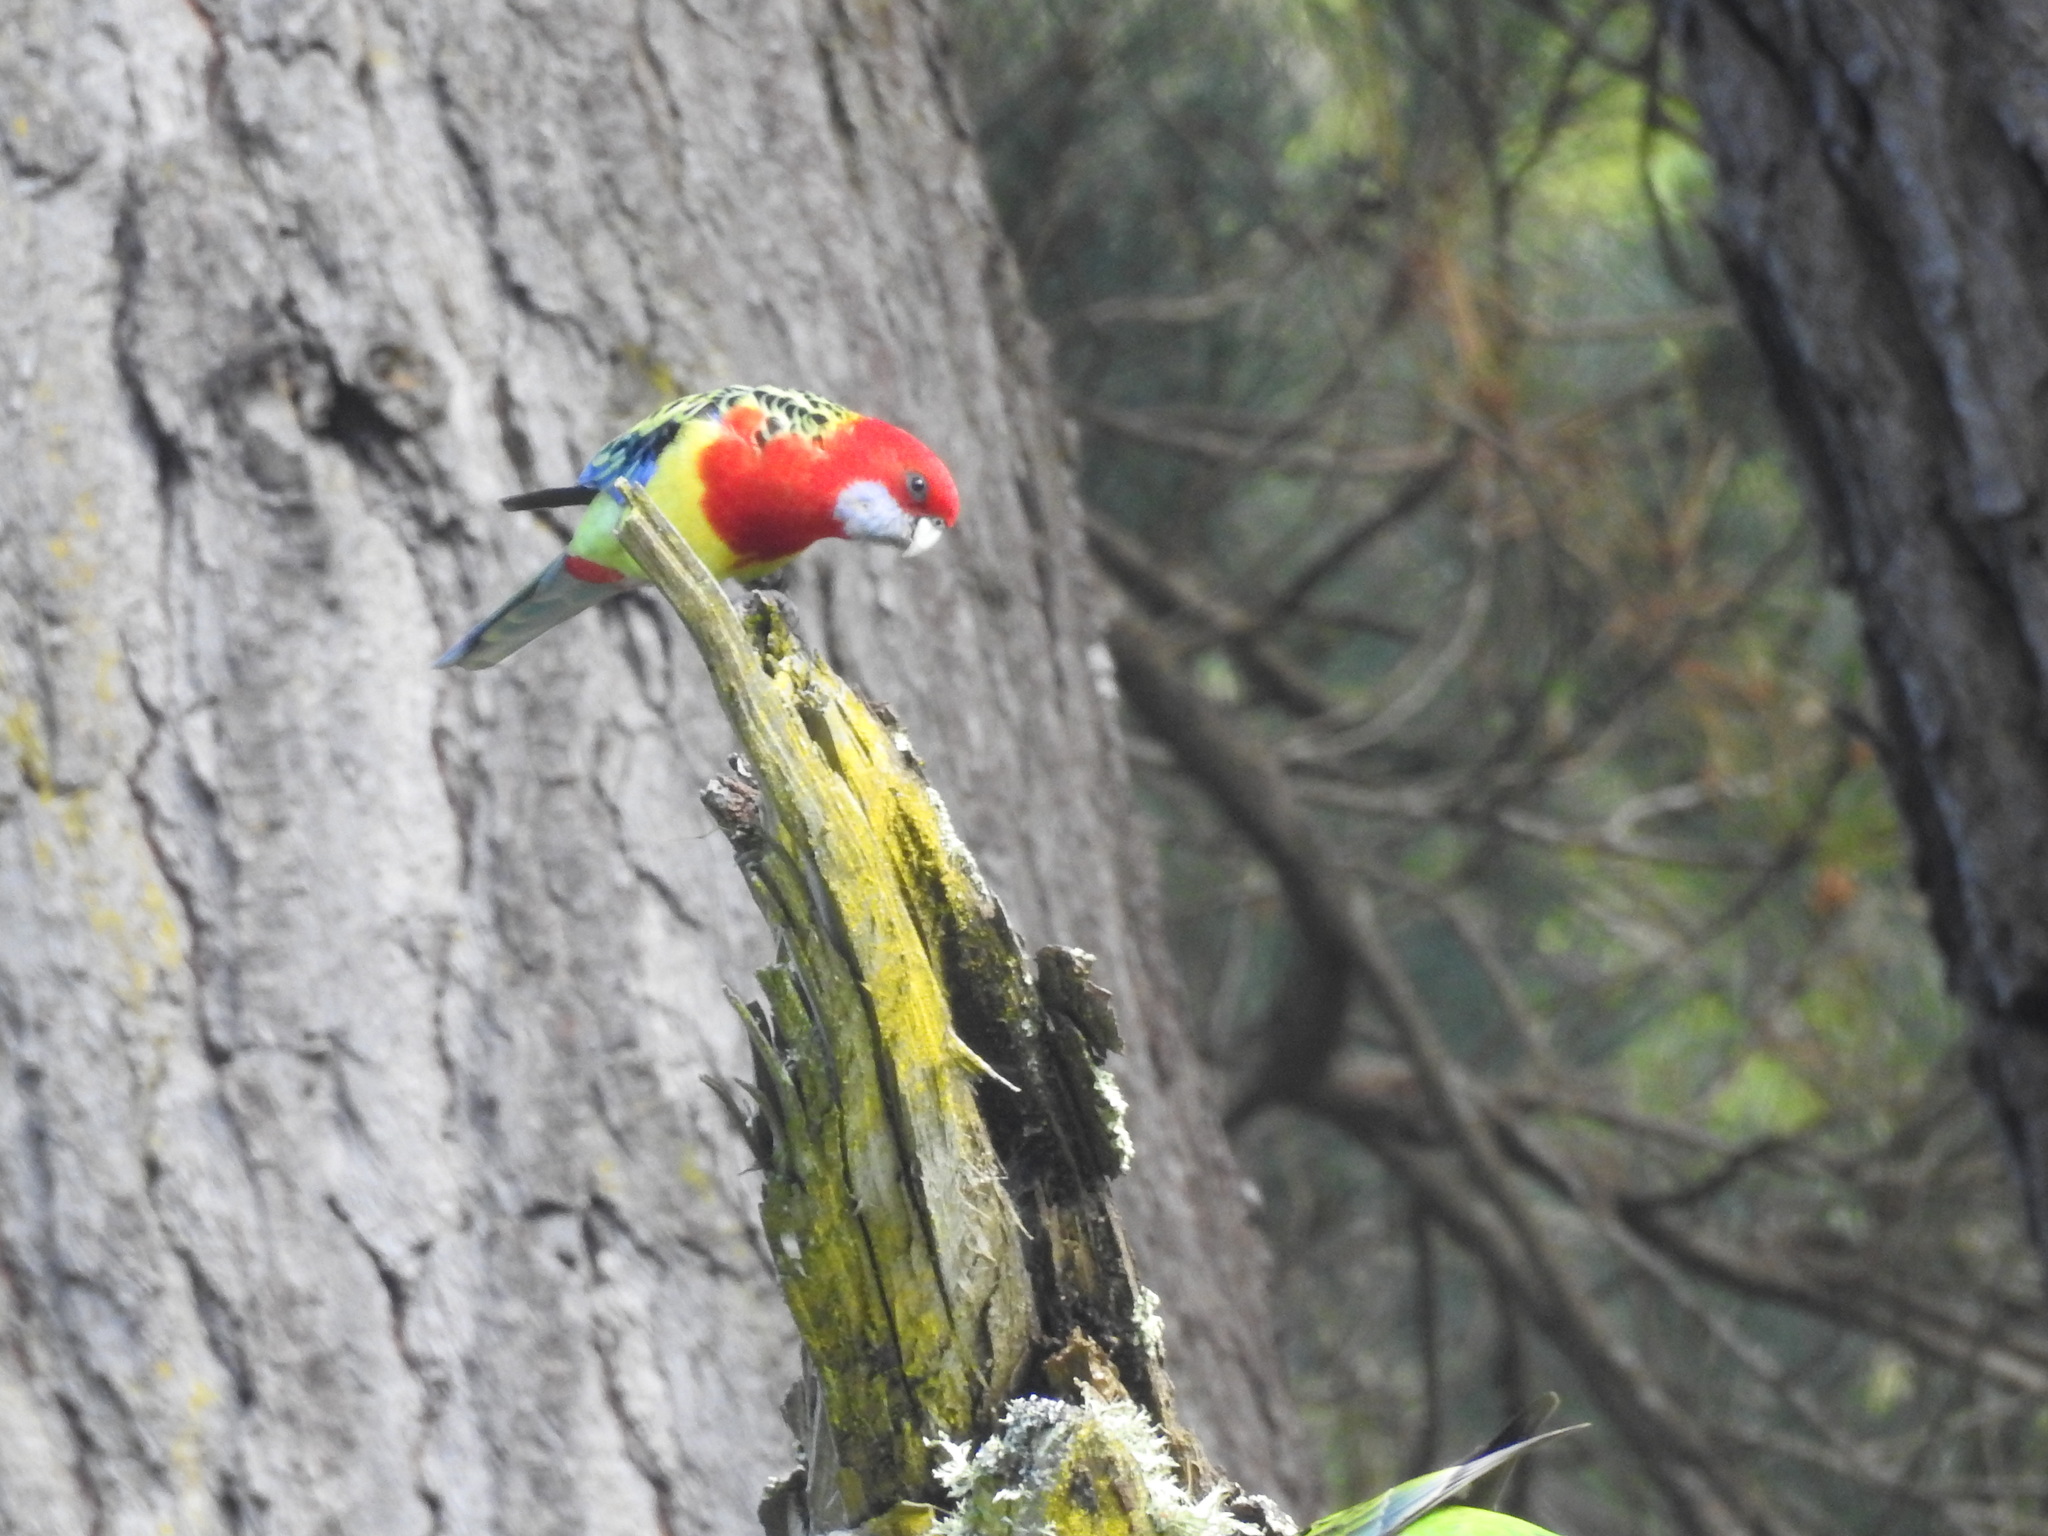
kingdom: Animalia
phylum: Chordata
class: Aves
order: Psittaciformes
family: Psittacidae
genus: Platycercus
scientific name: Platycercus eximius
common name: Eastern rosella
